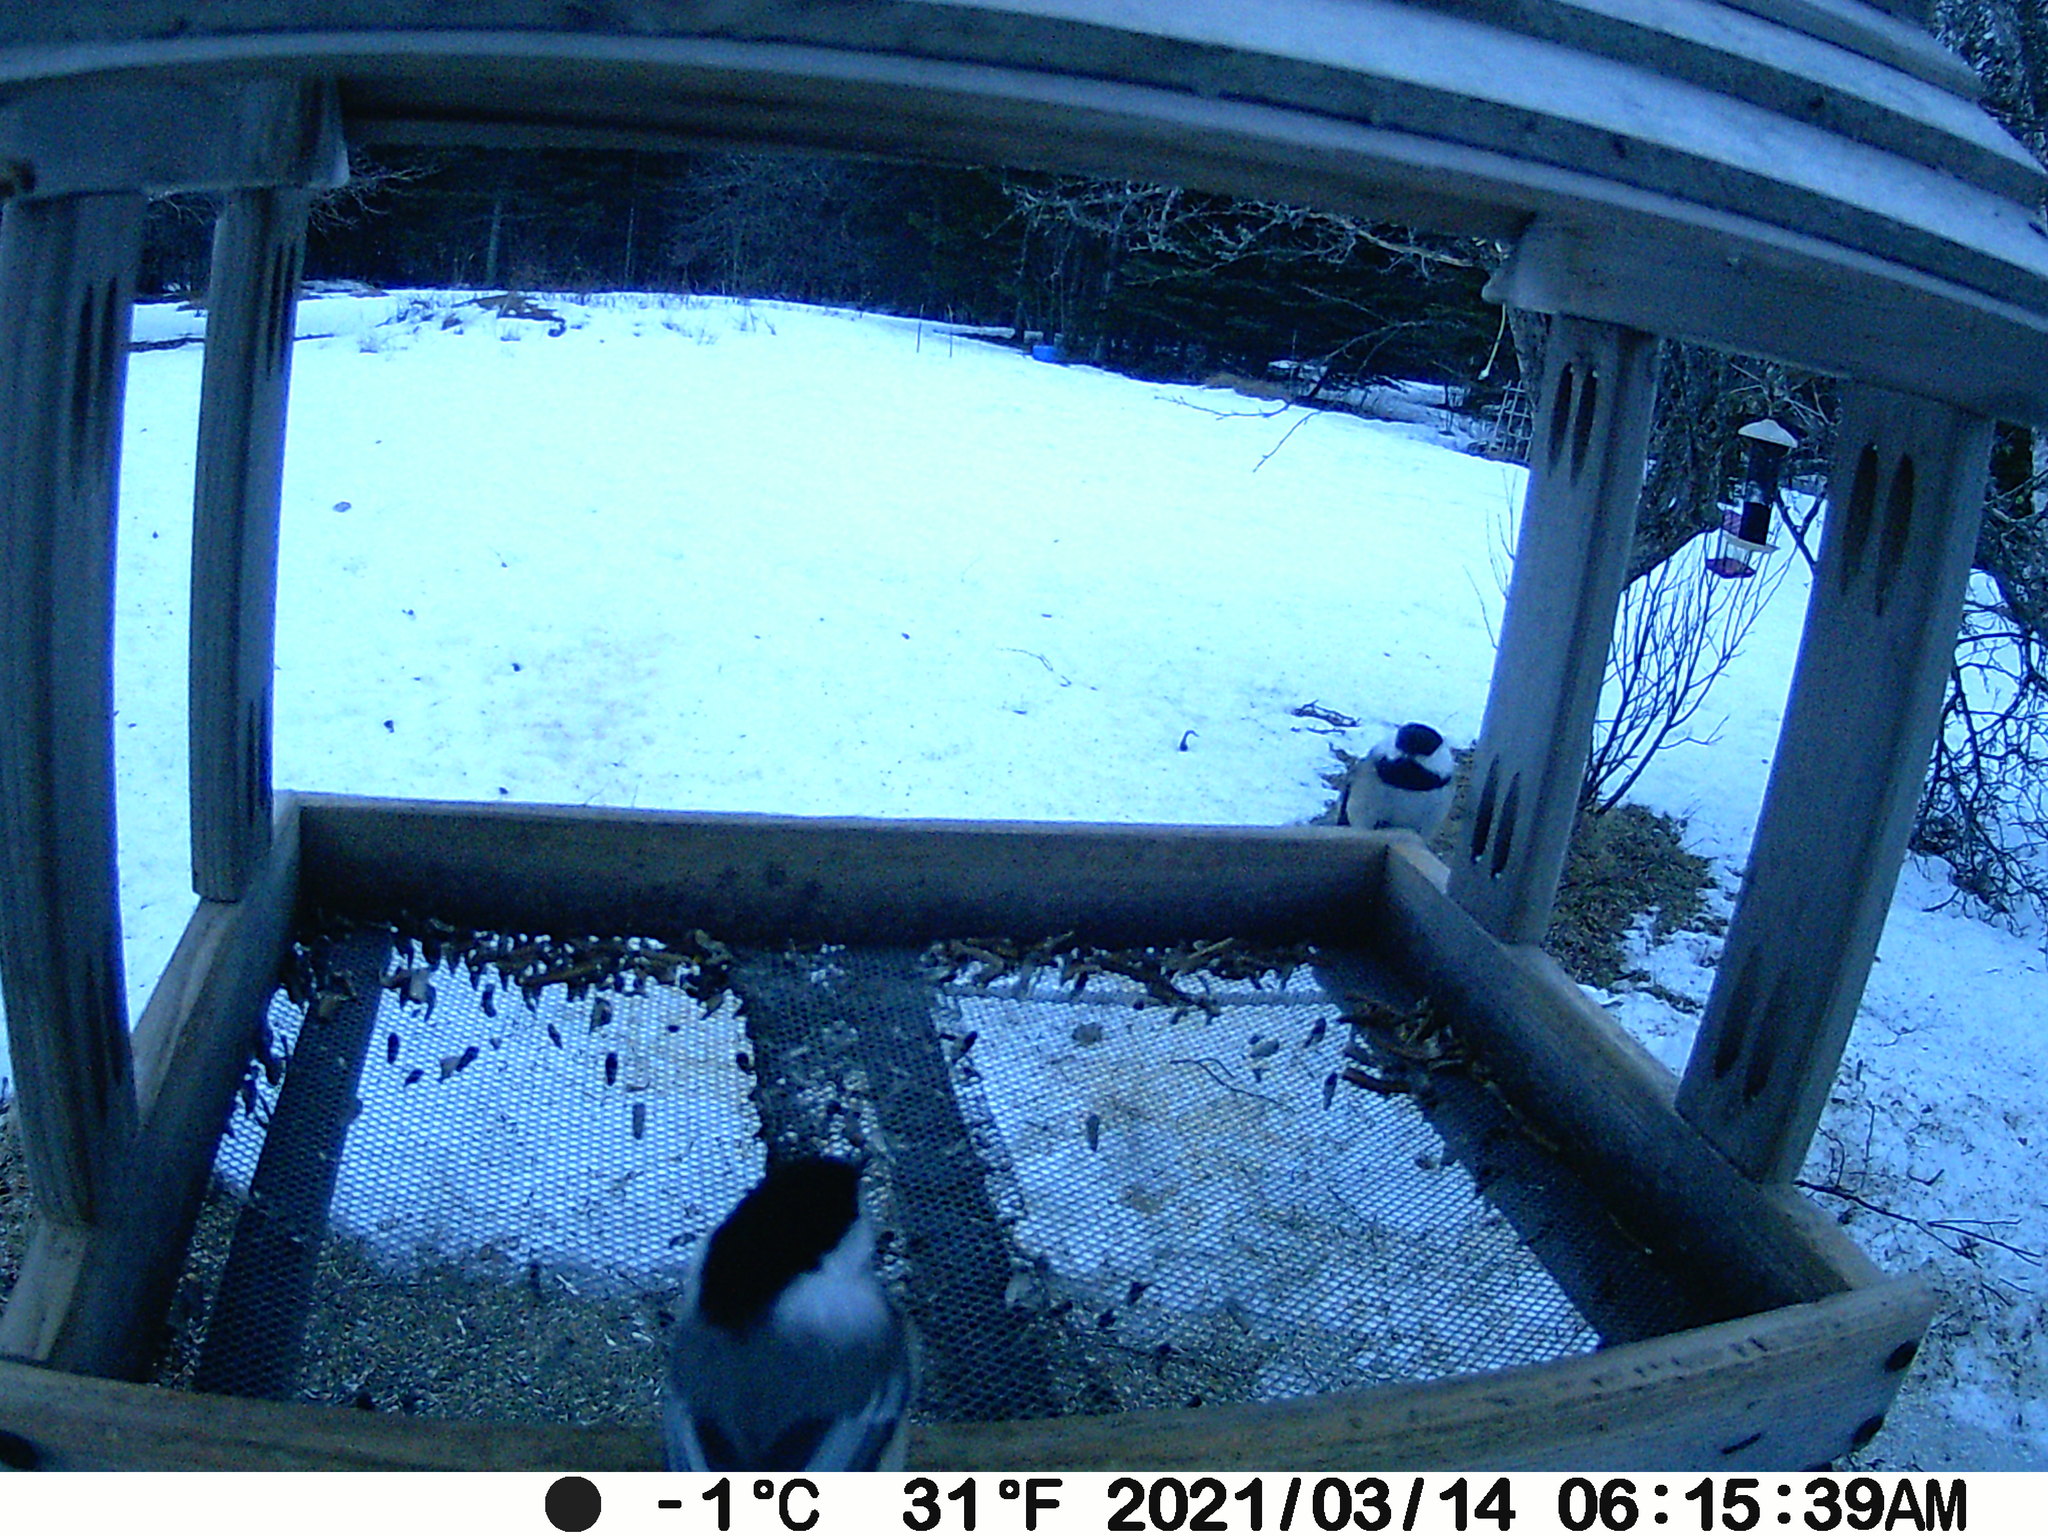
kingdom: Animalia
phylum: Chordata
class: Aves
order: Passeriformes
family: Paridae
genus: Poecile
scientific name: Poecile atricapillus
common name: Black-capped chickadee
